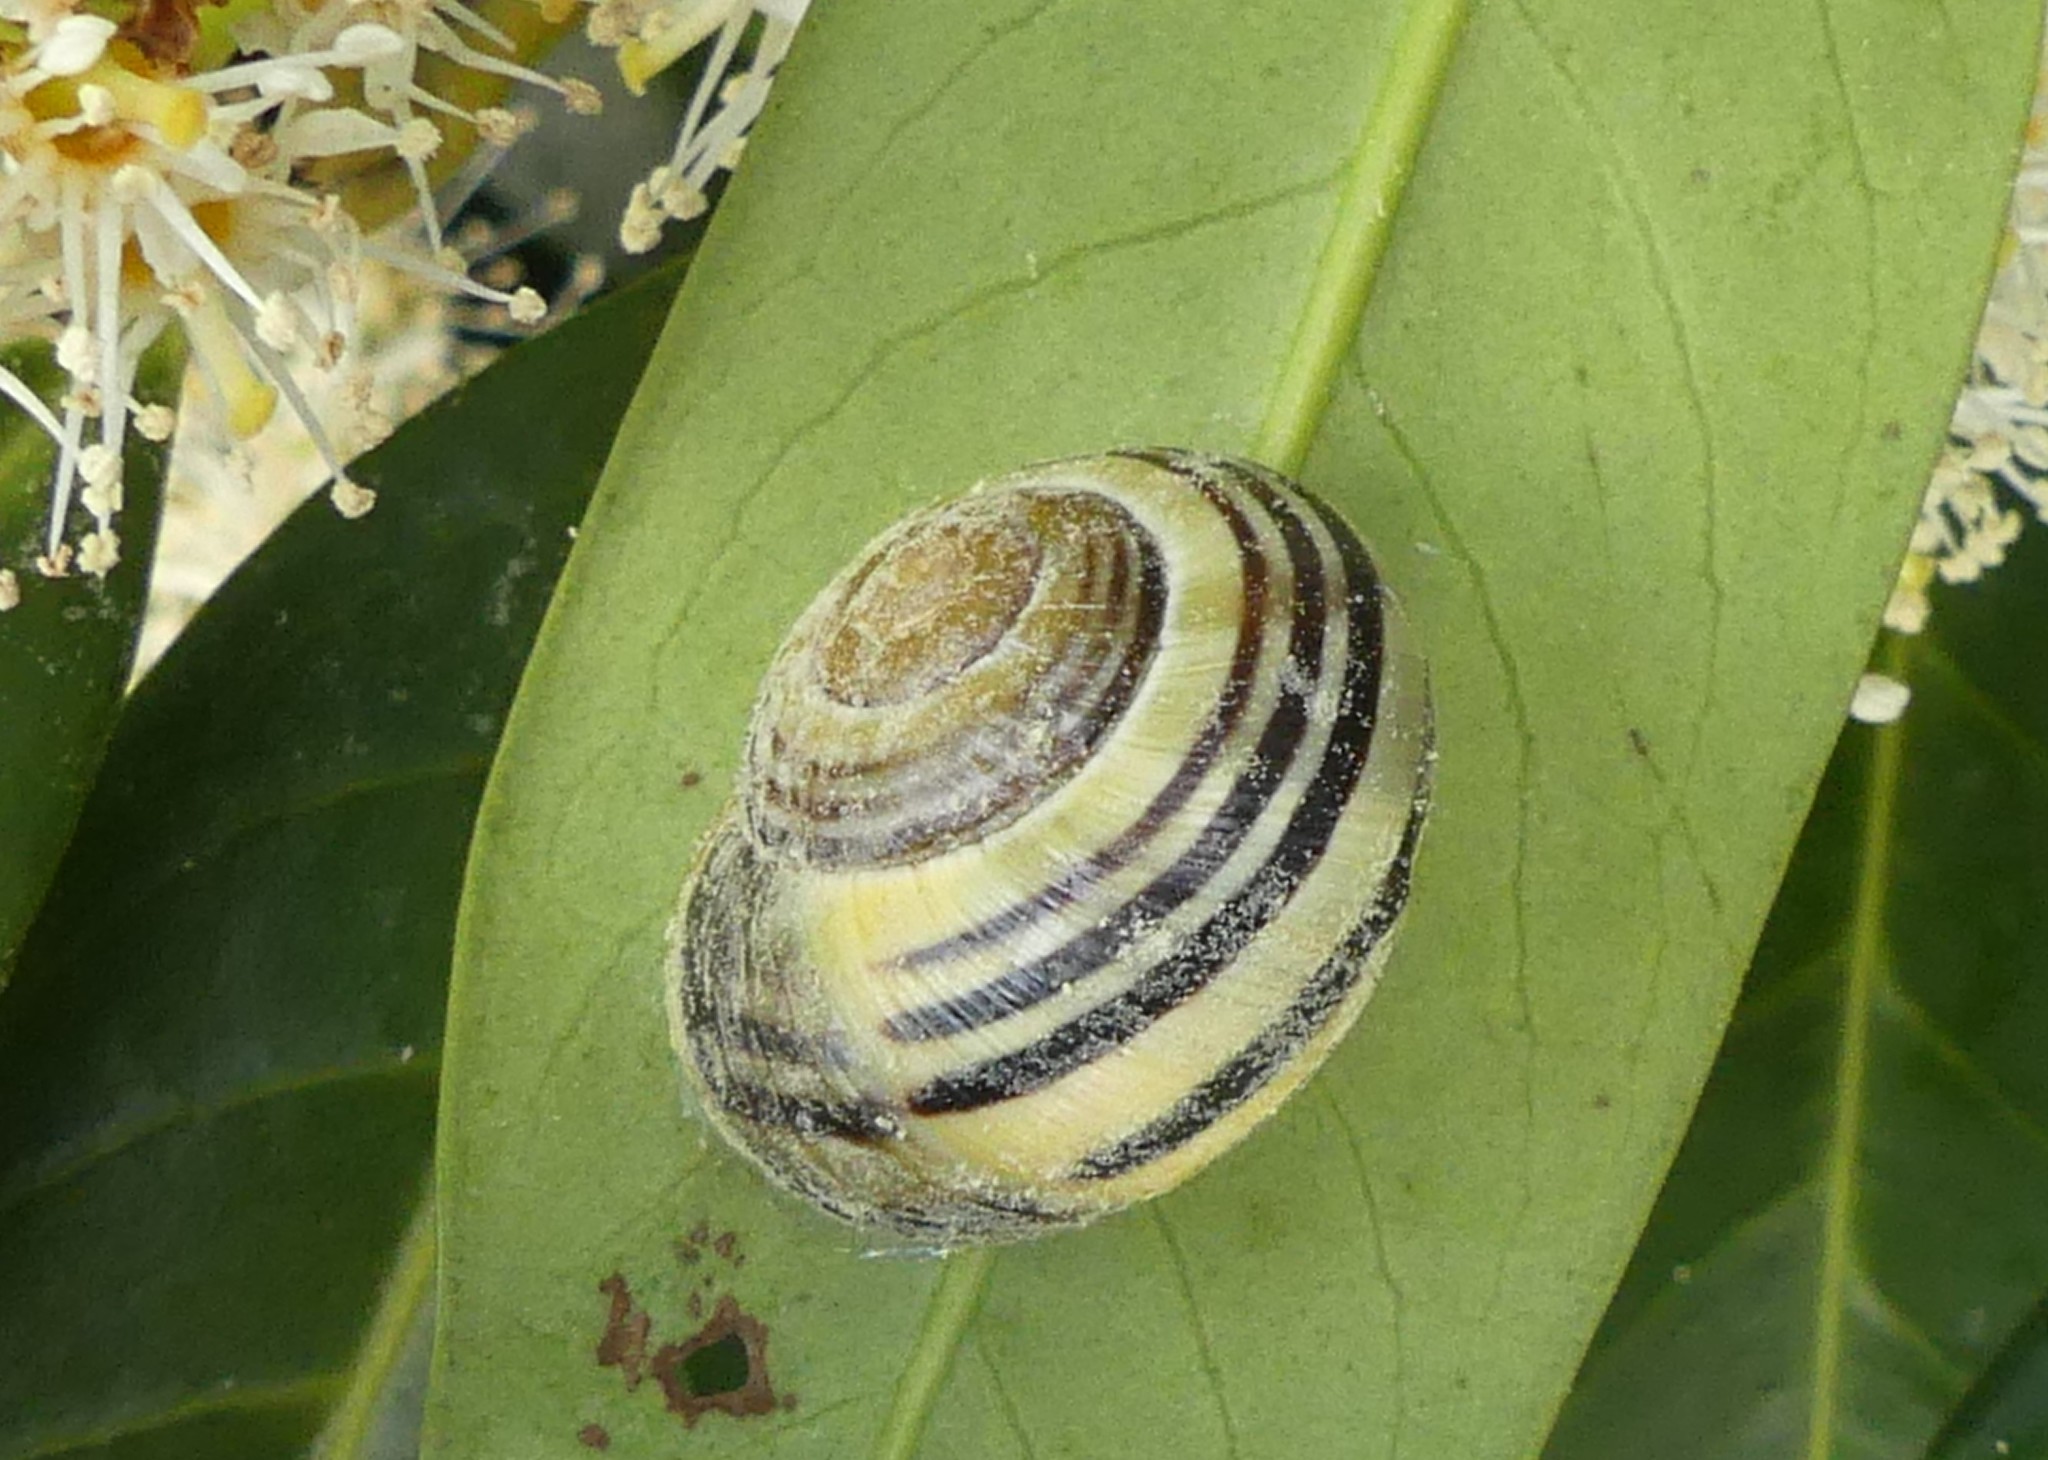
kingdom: Animalia
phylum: Mollusca
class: Gastropoda
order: Stylommatophora
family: Helicidae
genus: Cepaea
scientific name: Cepaea hortensis
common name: White-lip gardensnail
